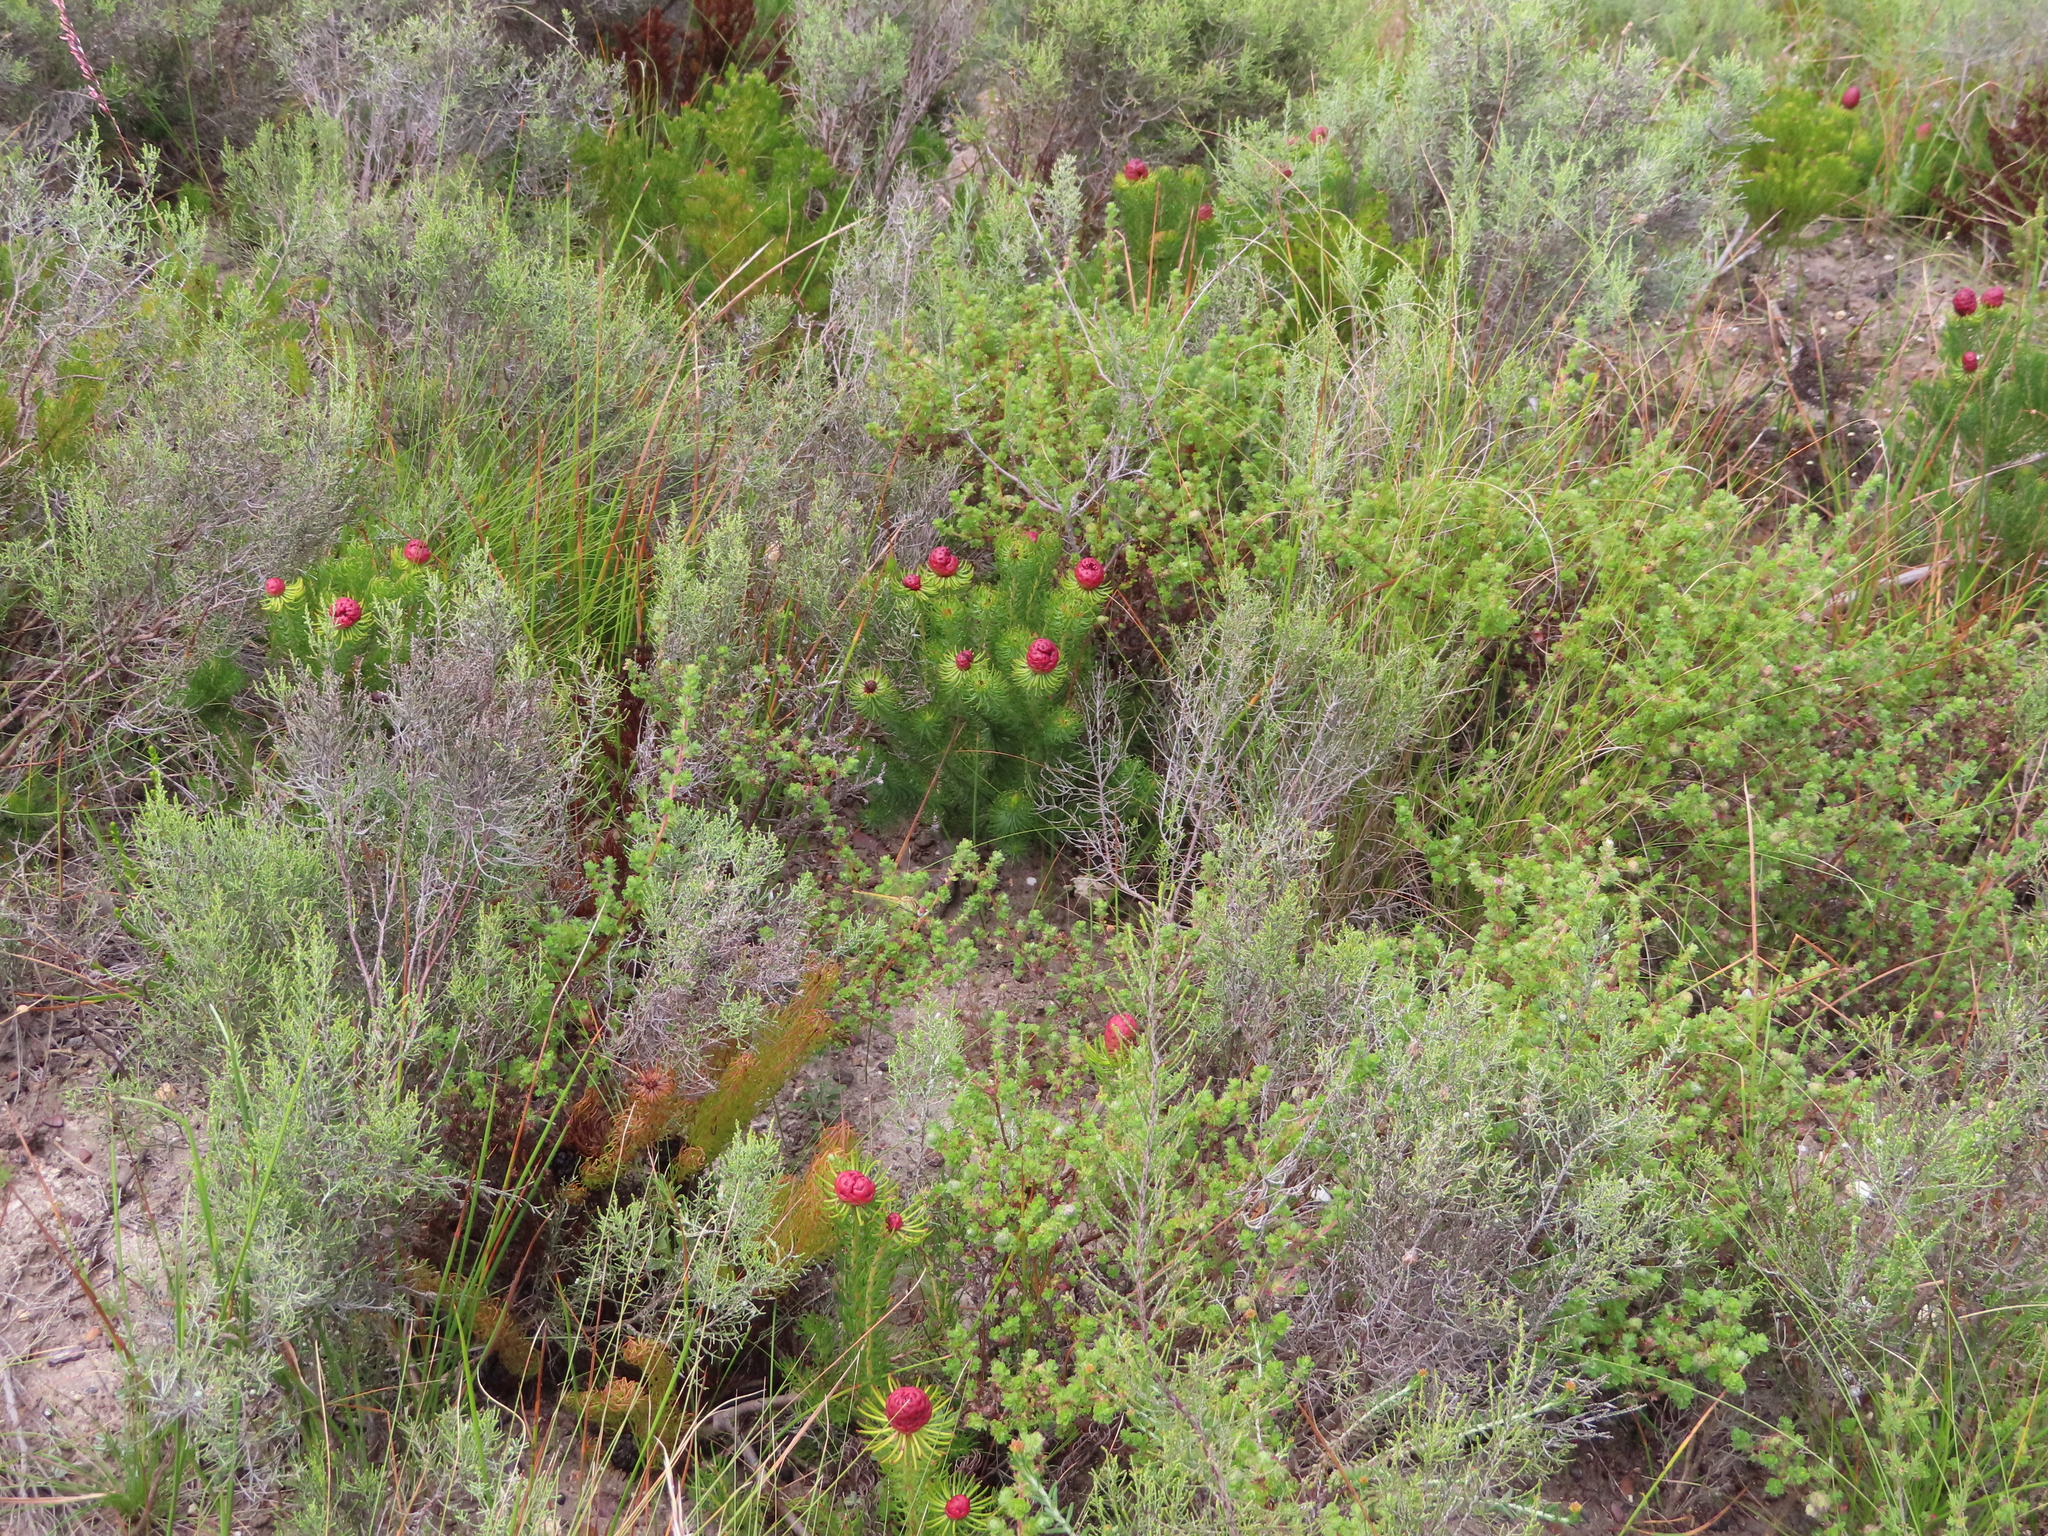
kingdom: Plantae
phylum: Tracheophyta
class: Magnoliopsida
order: Proteales
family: Proteaceae
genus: Leucadendron
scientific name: Leucadendron teretifolium
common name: Needle-leaf conebush
